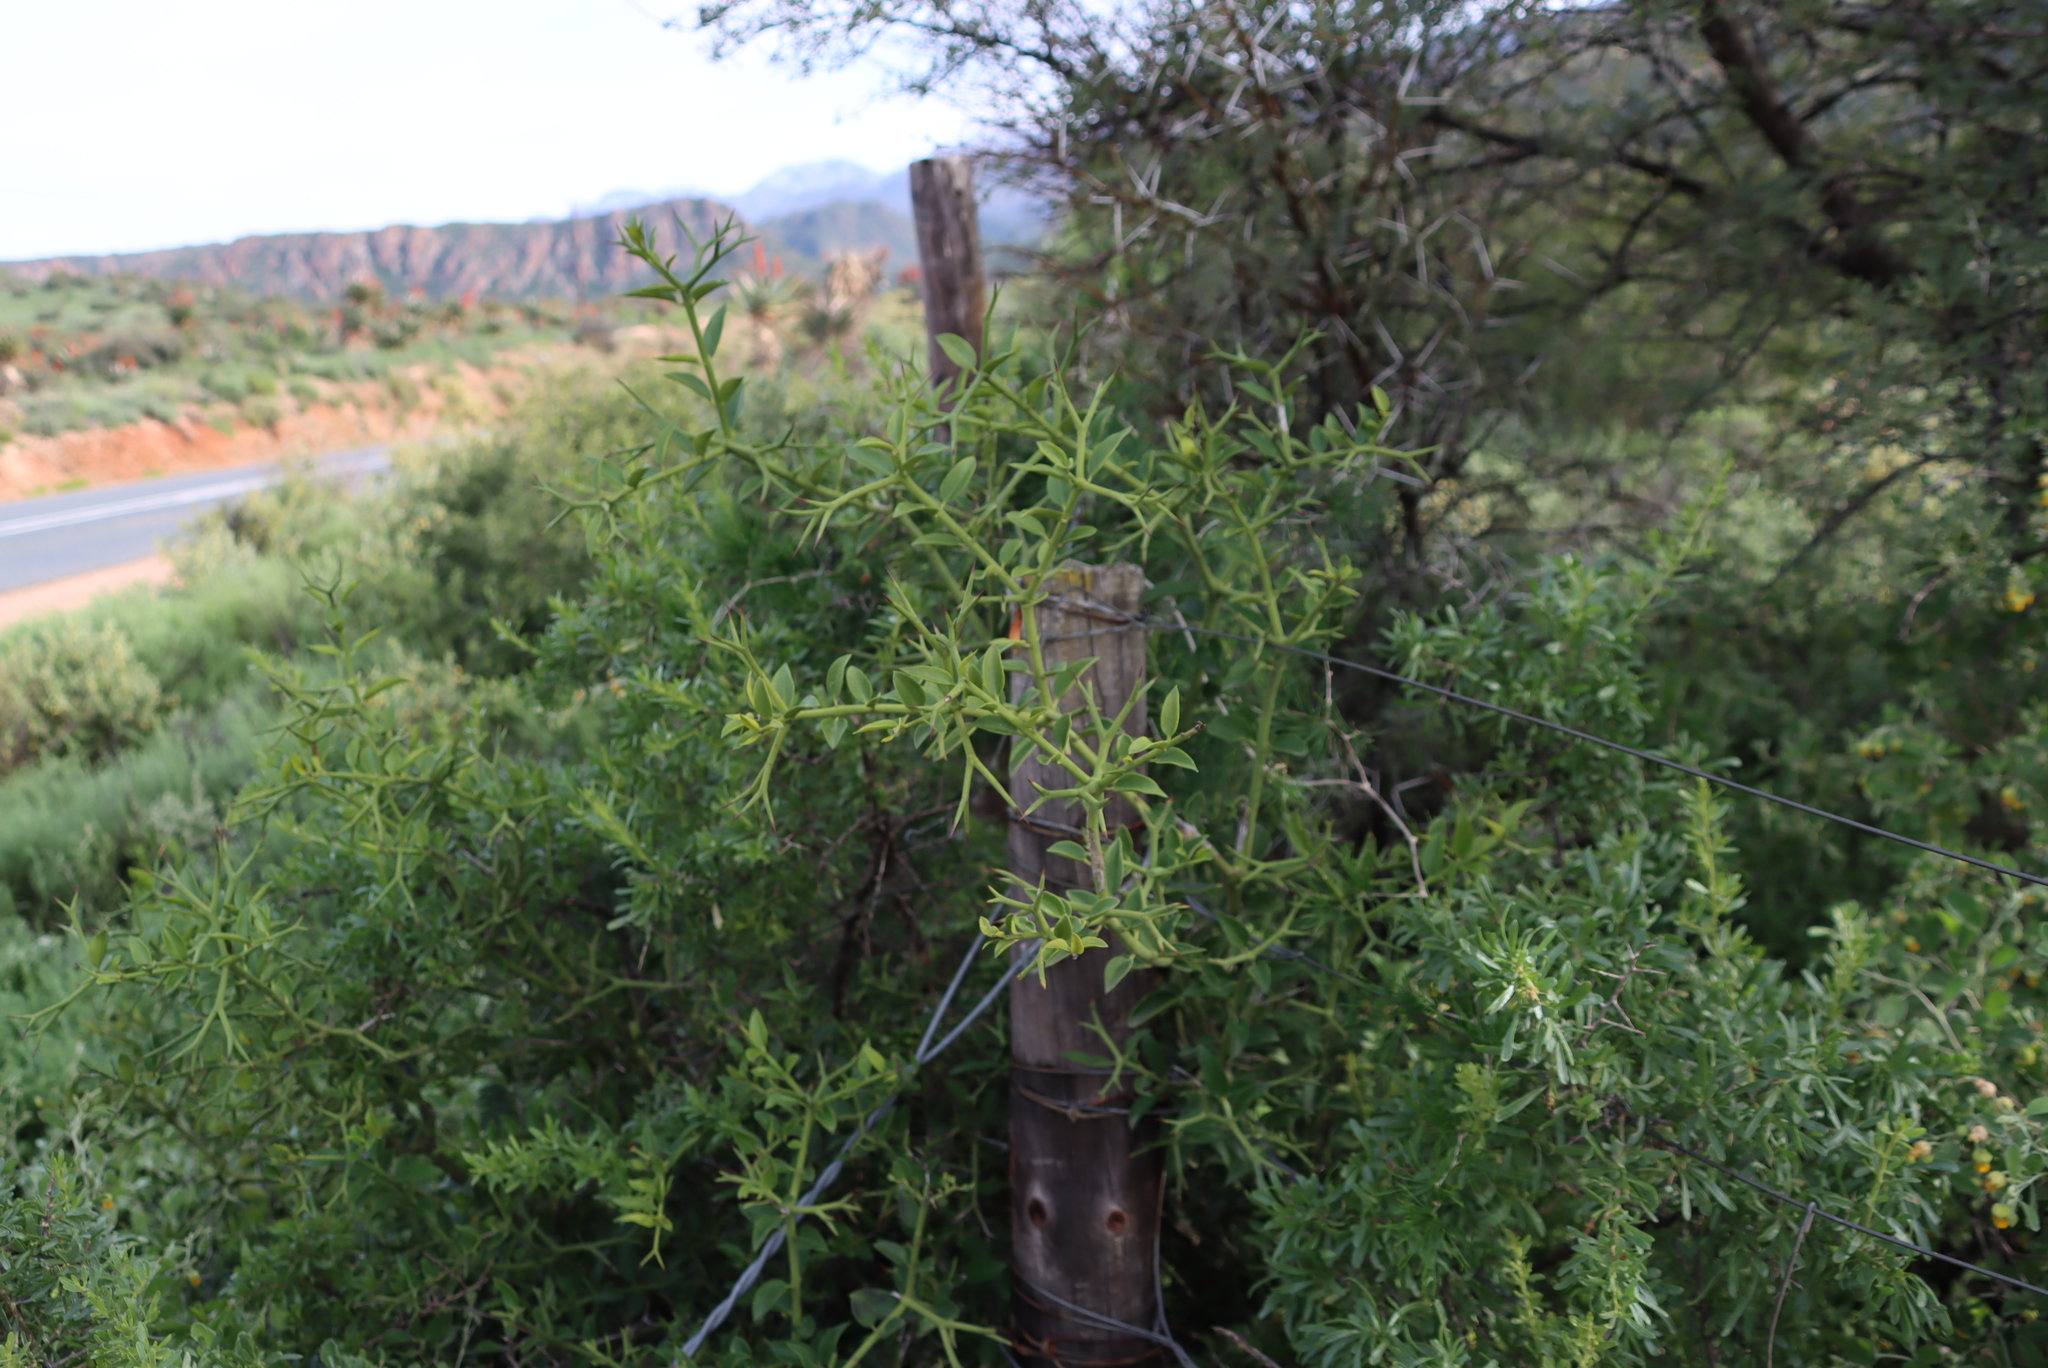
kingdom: Plantae
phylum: Tracheophyta
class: Magnoliopsida
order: Gentianales
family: Apocynaceae
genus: Carissa
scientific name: Carissa haematocarpa
